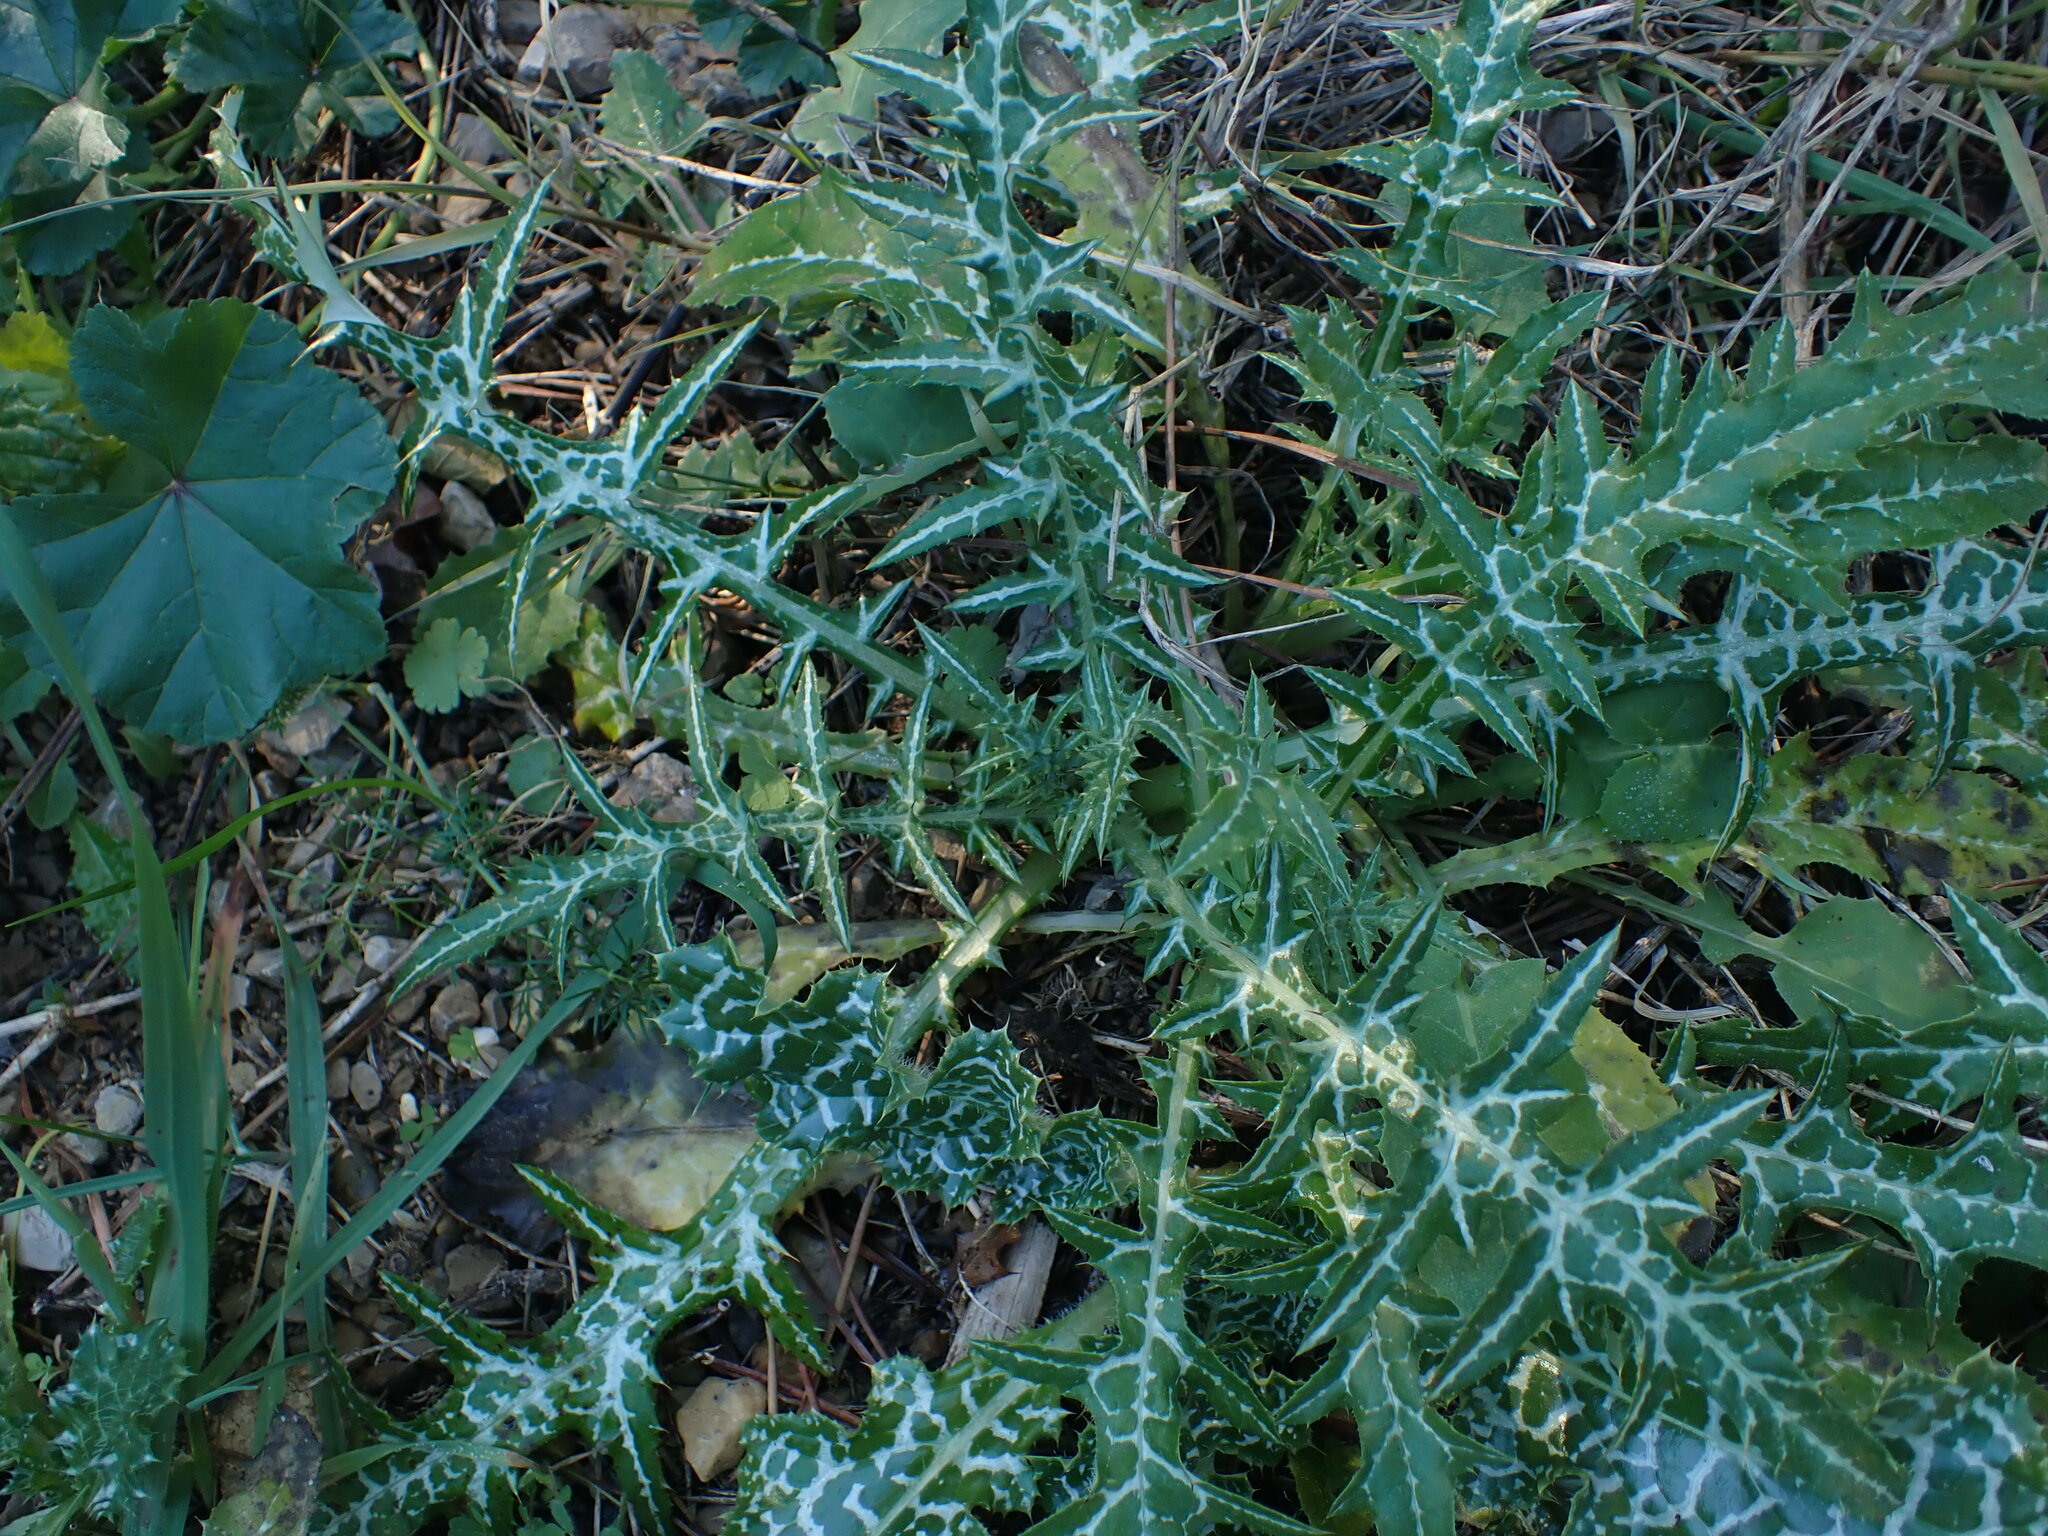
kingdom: Plantae
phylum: Tracheophyta
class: Magnoliopsida
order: Asterales
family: Asteraceae
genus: Galactites
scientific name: Galactites tomentosa
